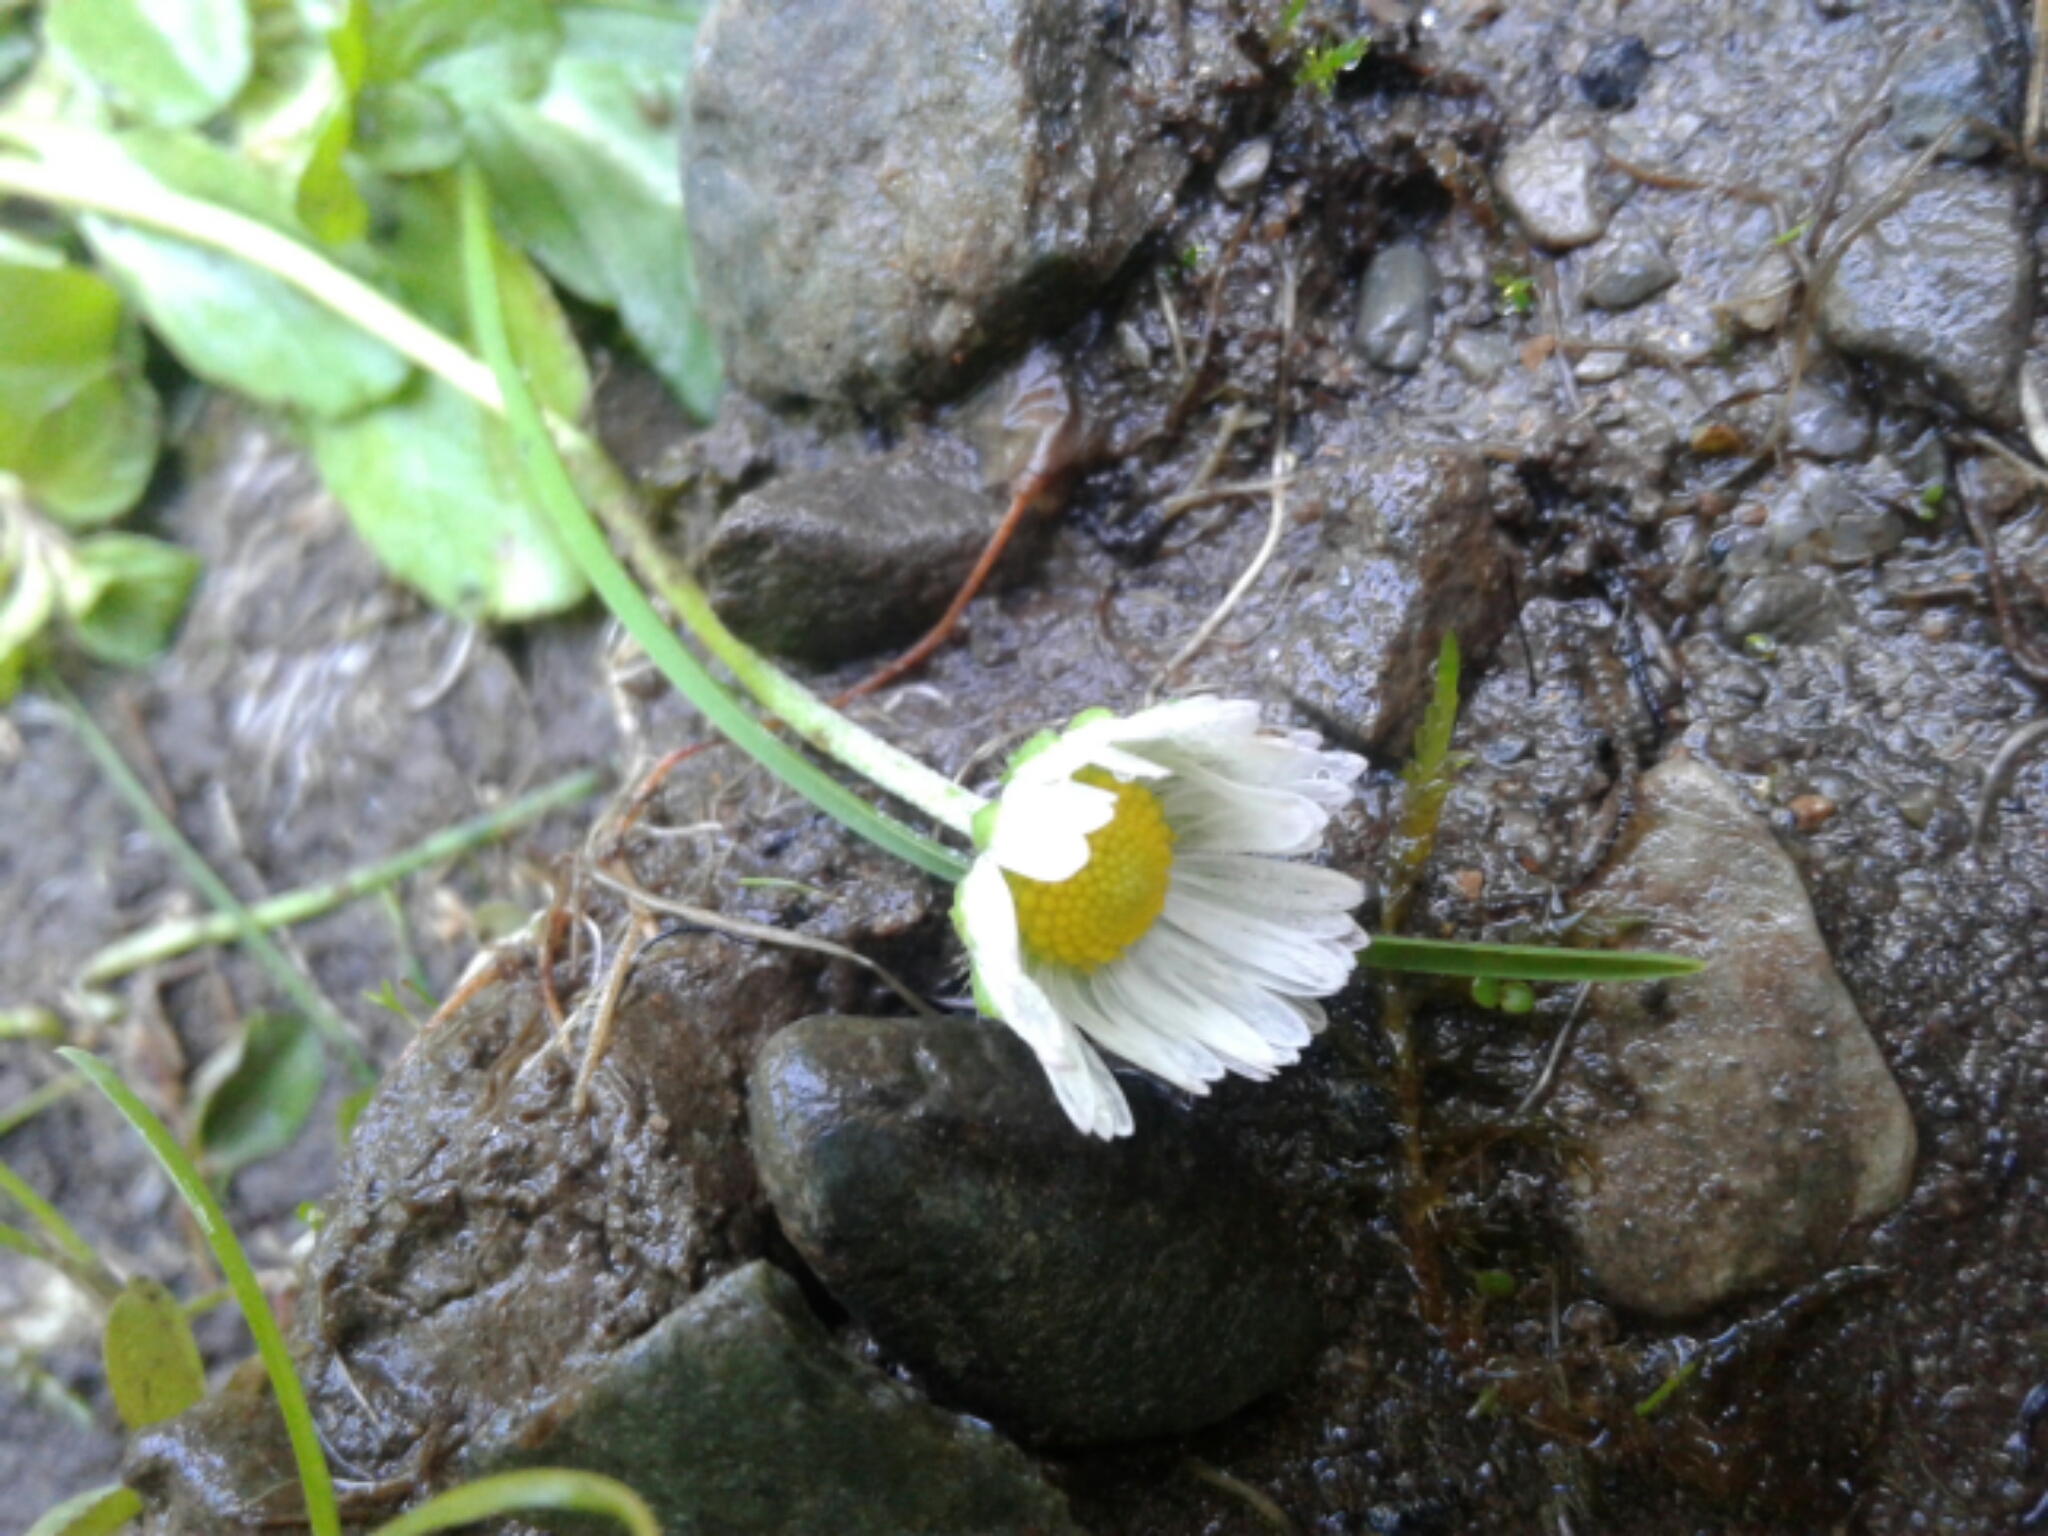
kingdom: Plantae
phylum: Tracheophyta
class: Magnoliopsida
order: Asterales
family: Asteraceae
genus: Bellis
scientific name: Bellis perennis
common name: Lawndaisy
